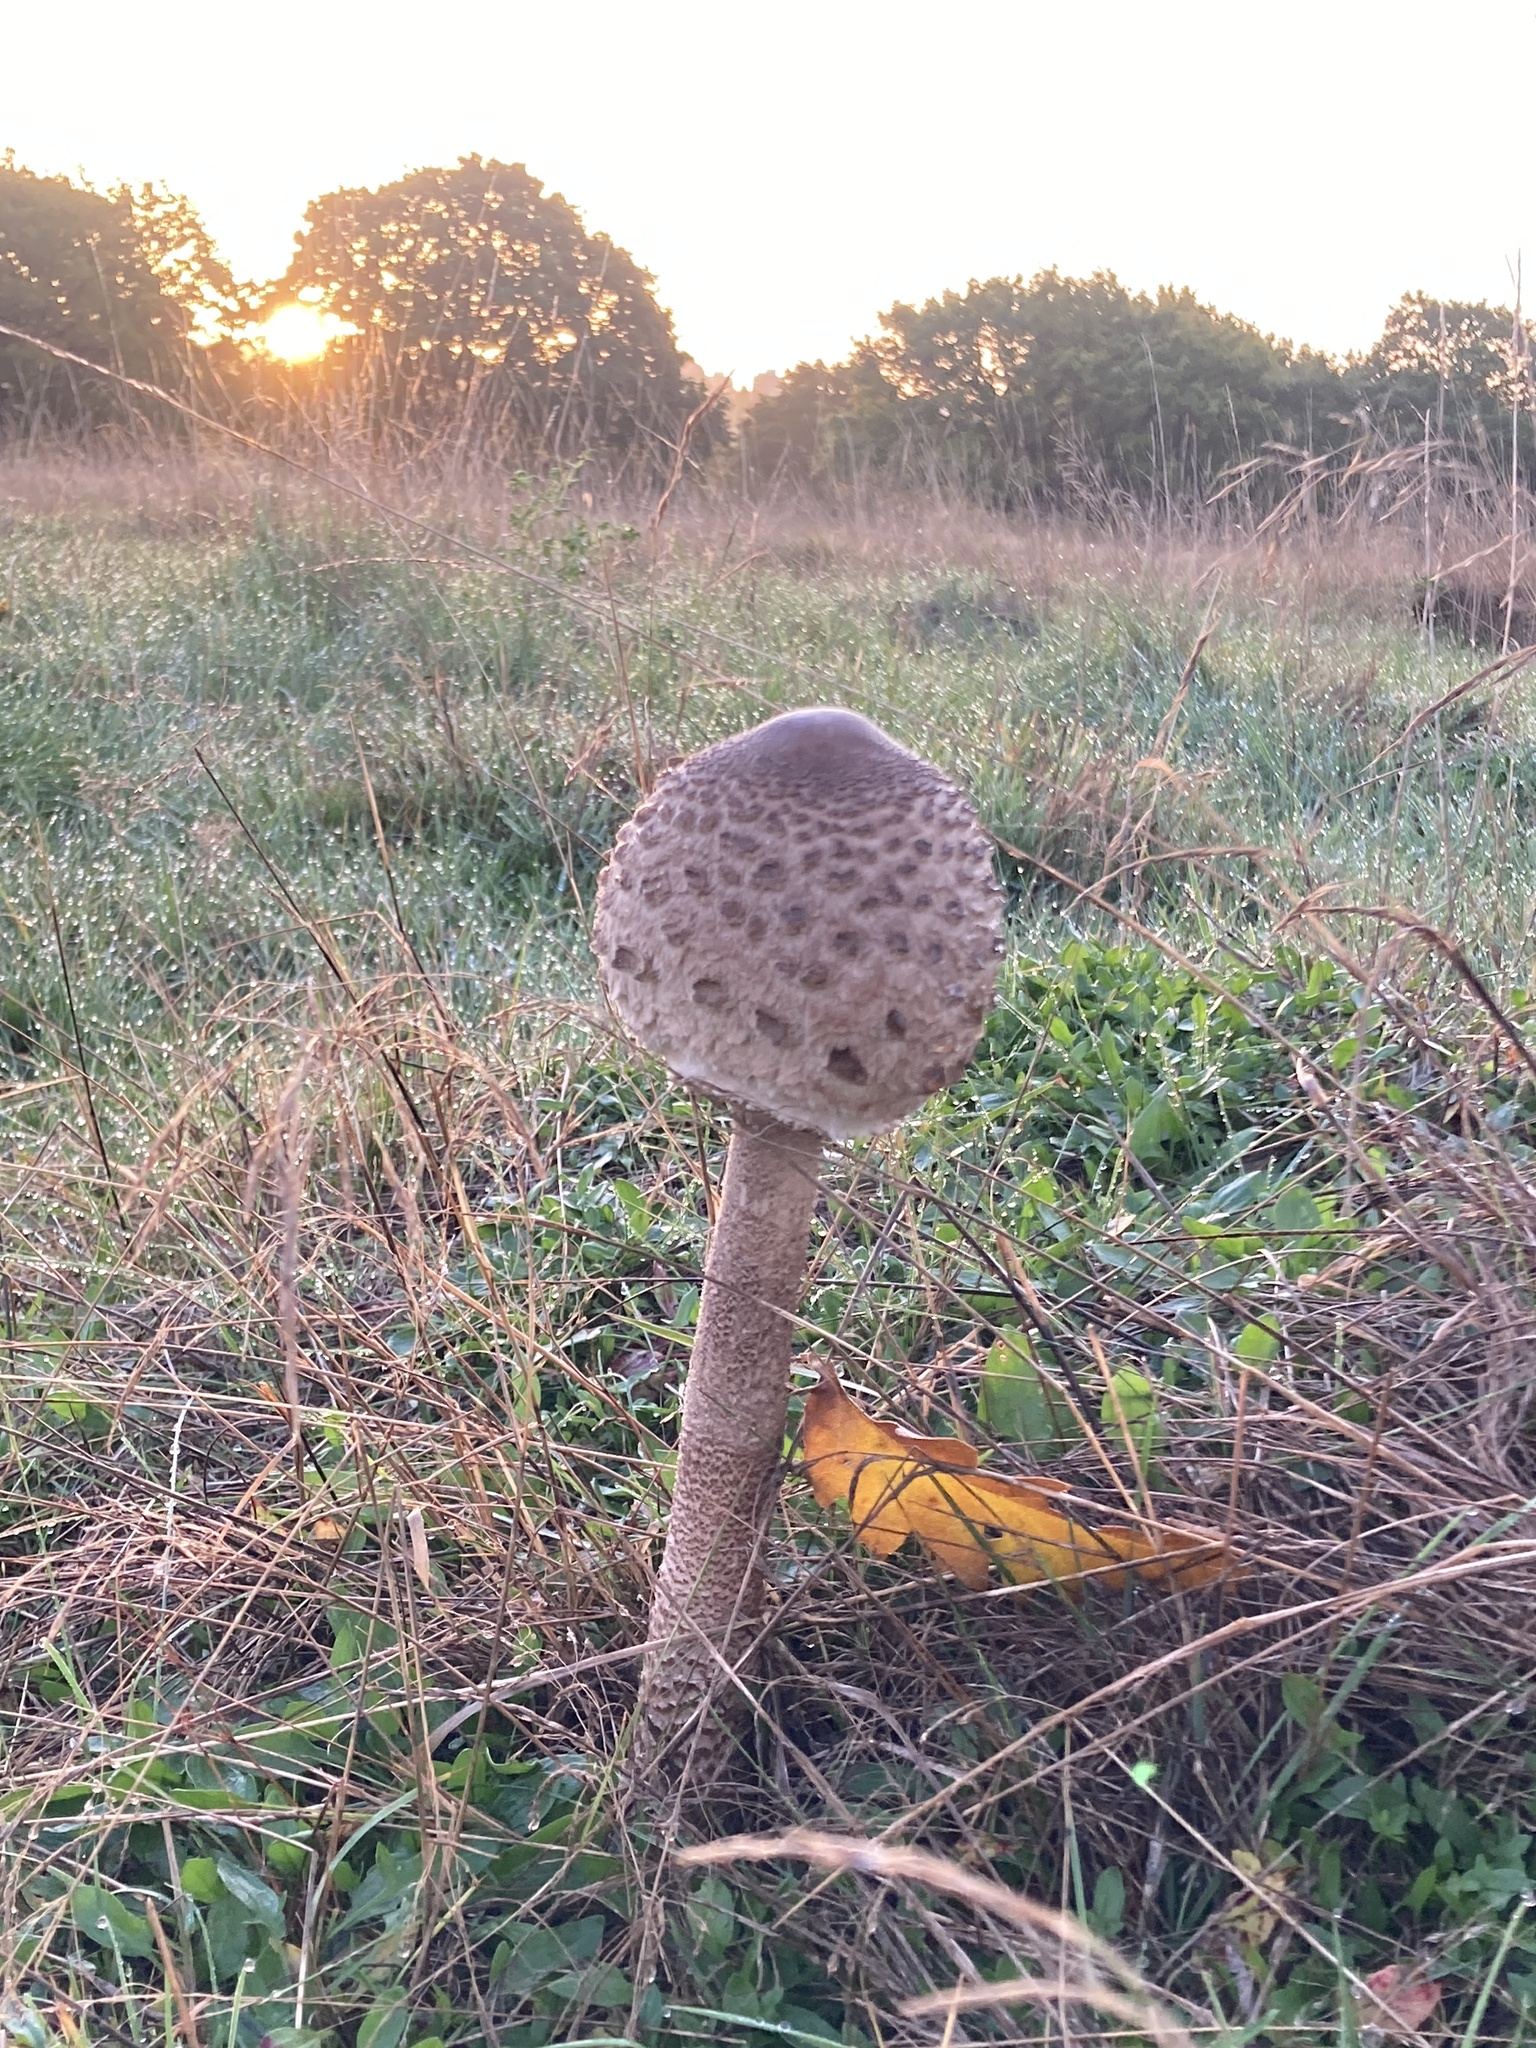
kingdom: Fungi
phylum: Basidiomycota
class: Agaricomycetes
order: Agaricales
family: Agaricaceae
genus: Macrolepiota
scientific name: Macrolepiota procera
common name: Parasol
